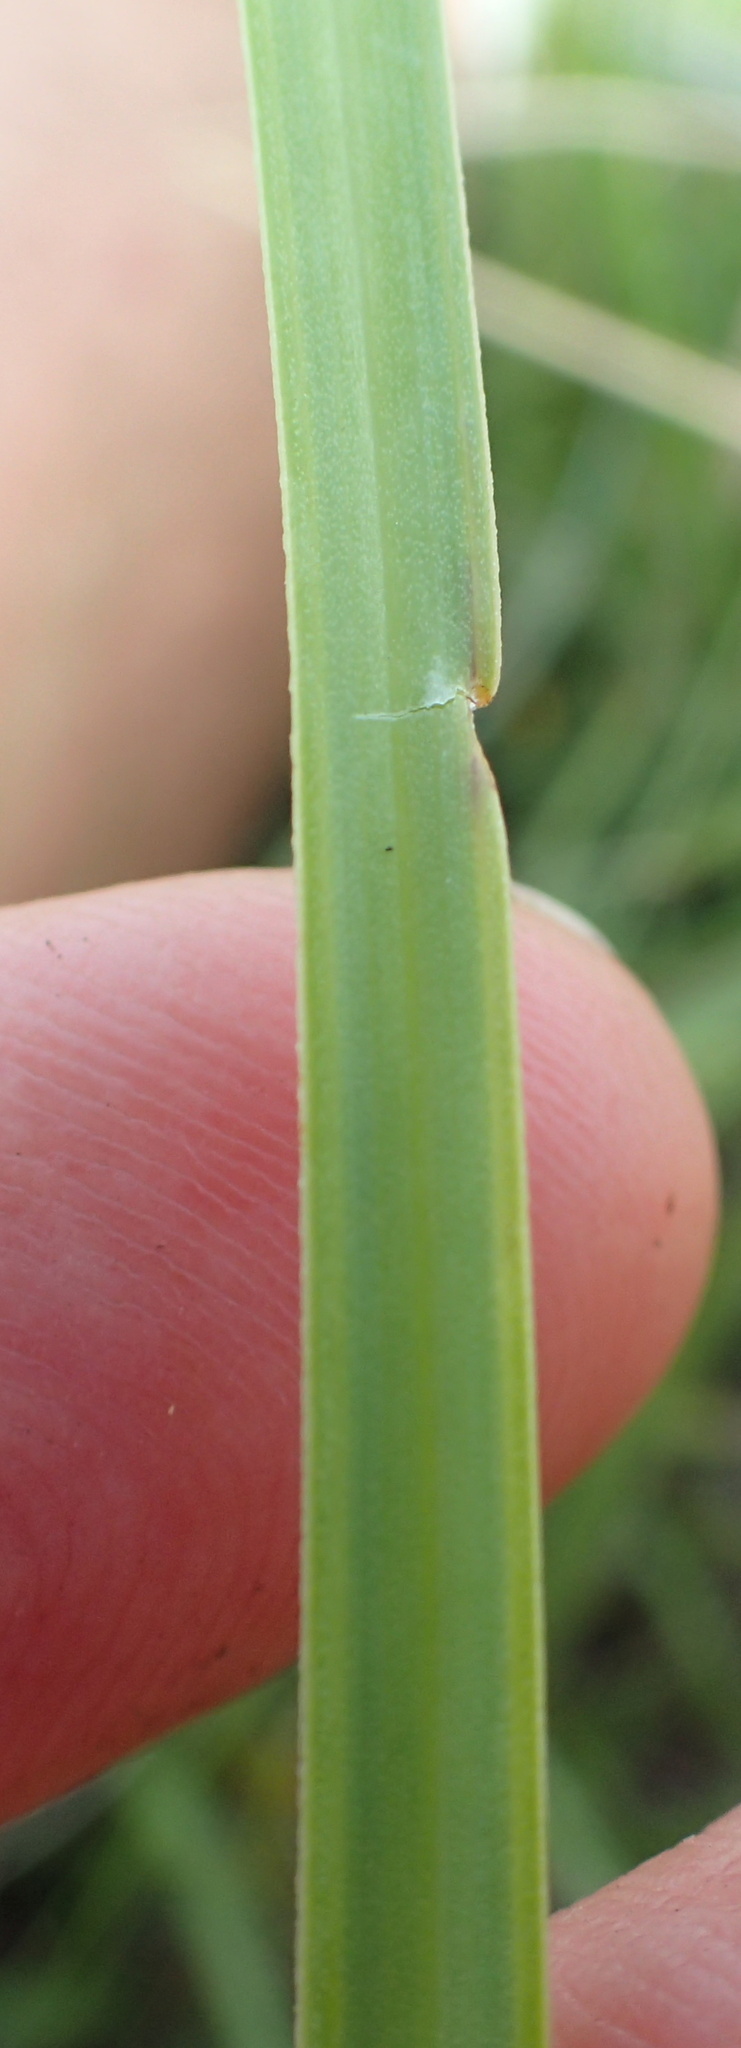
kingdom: Plantae
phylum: Tracheophyta
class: Liliopsida
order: Asparagales
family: Asphodelaceae
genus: Kniphofia
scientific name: Kniphofia angustifolia
